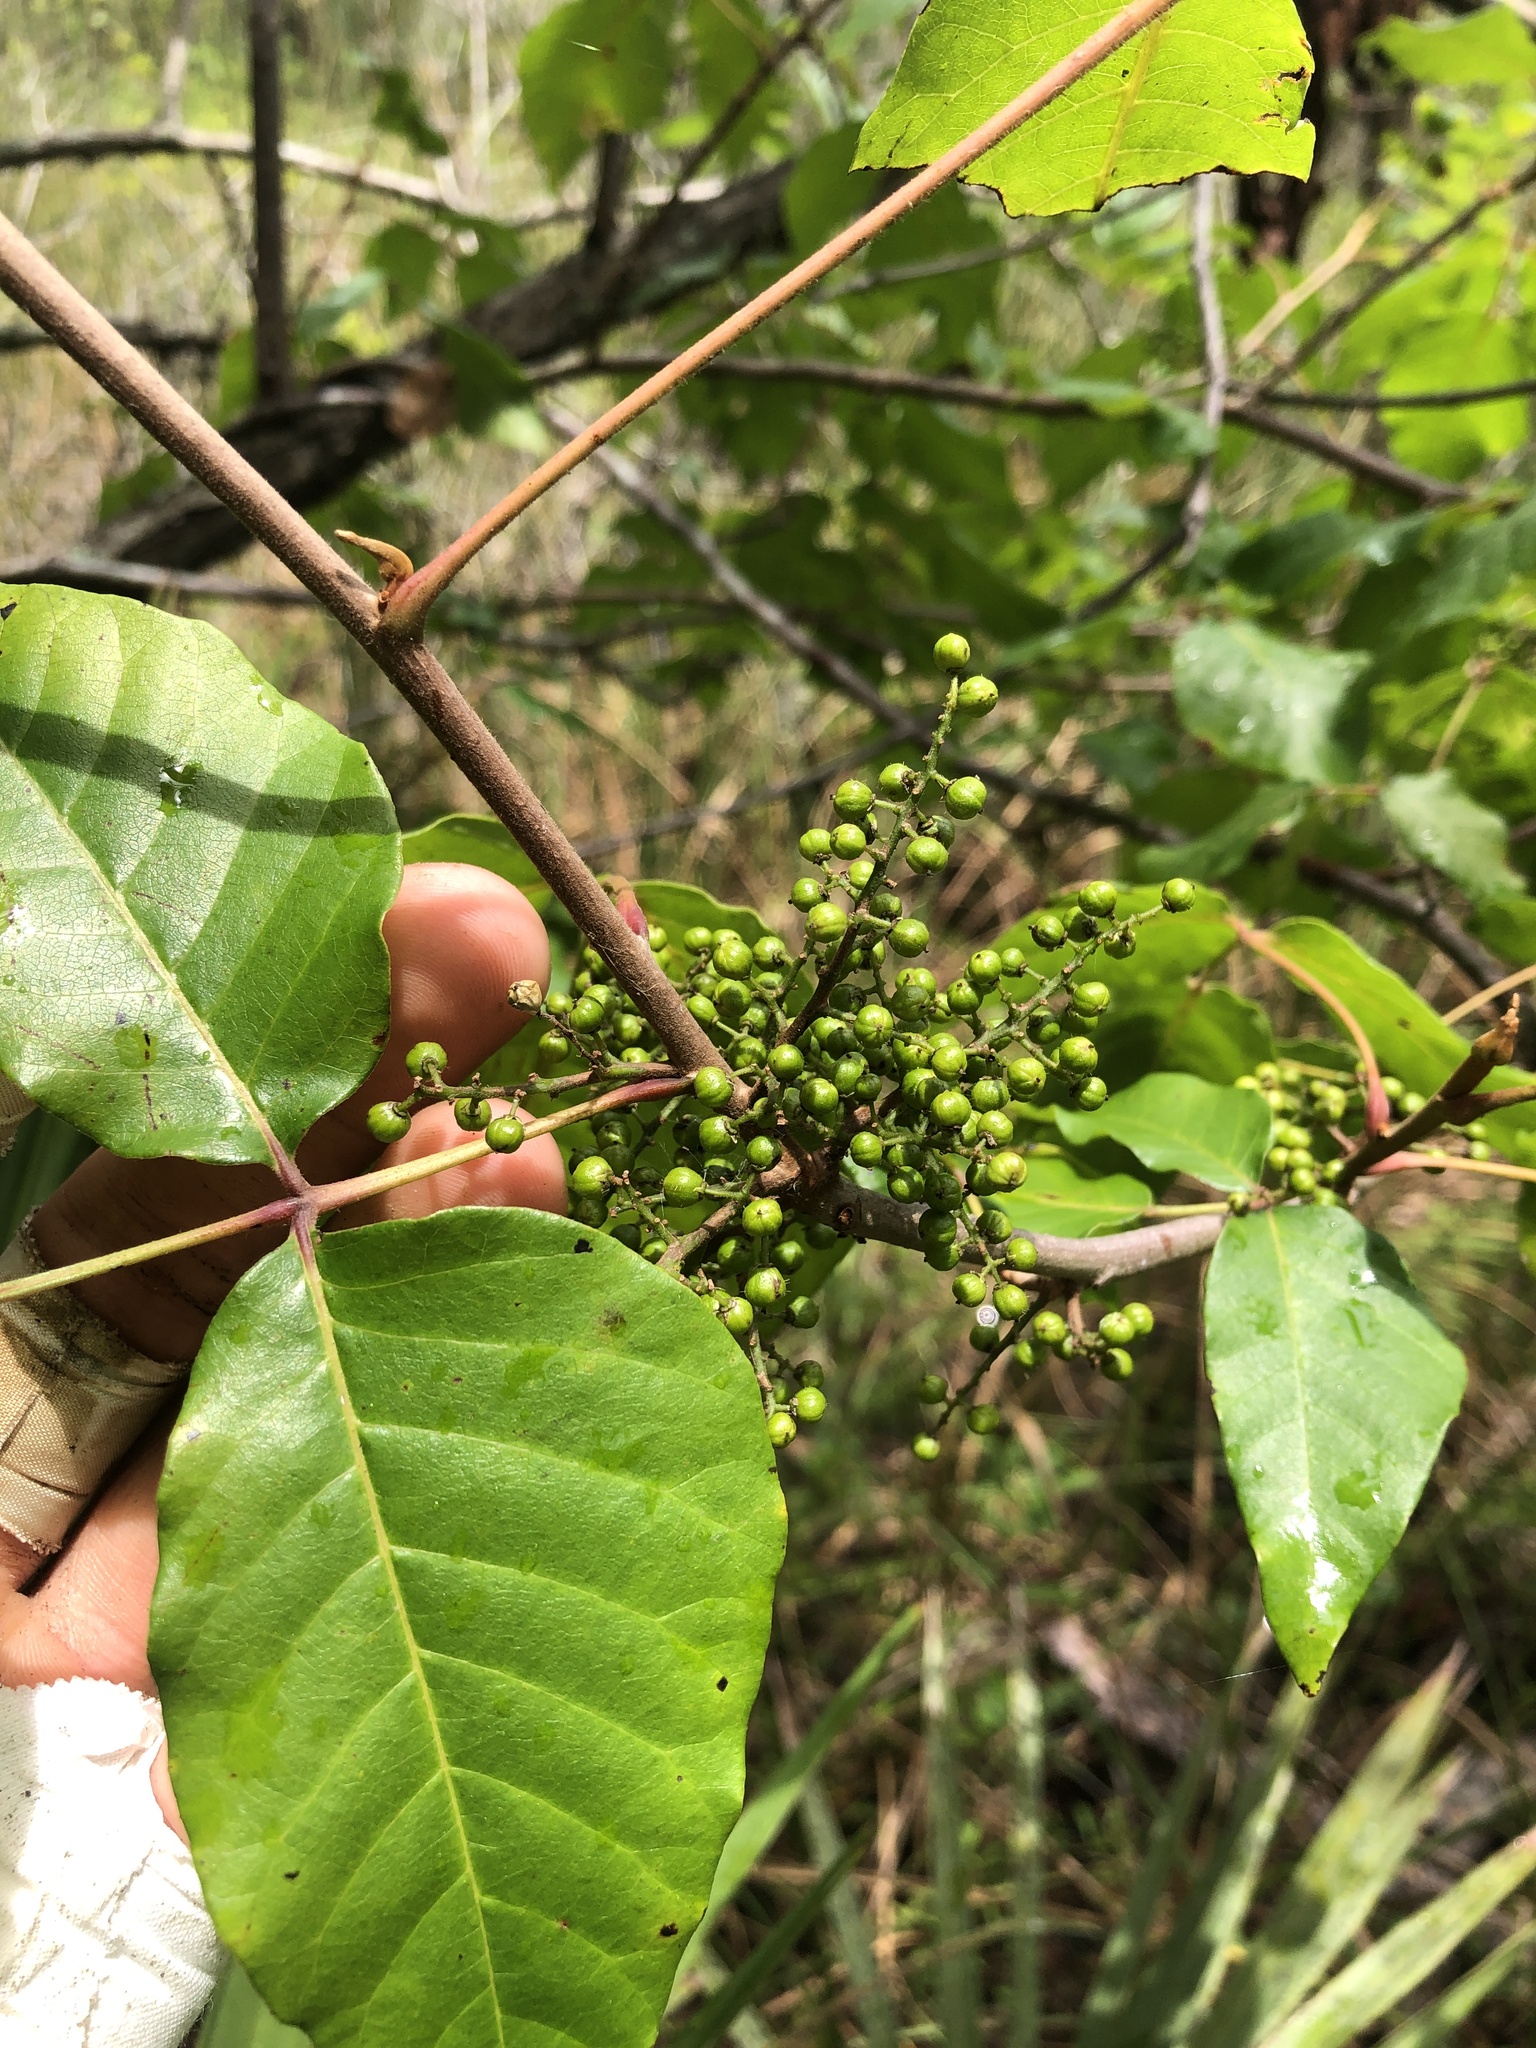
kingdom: Plantae
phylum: Tracheophyta
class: Magnoliopsida
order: Sapindales
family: Anacardiaceae
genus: Toxicodendron
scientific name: Toxicodendron radicans
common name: Poison ivy
